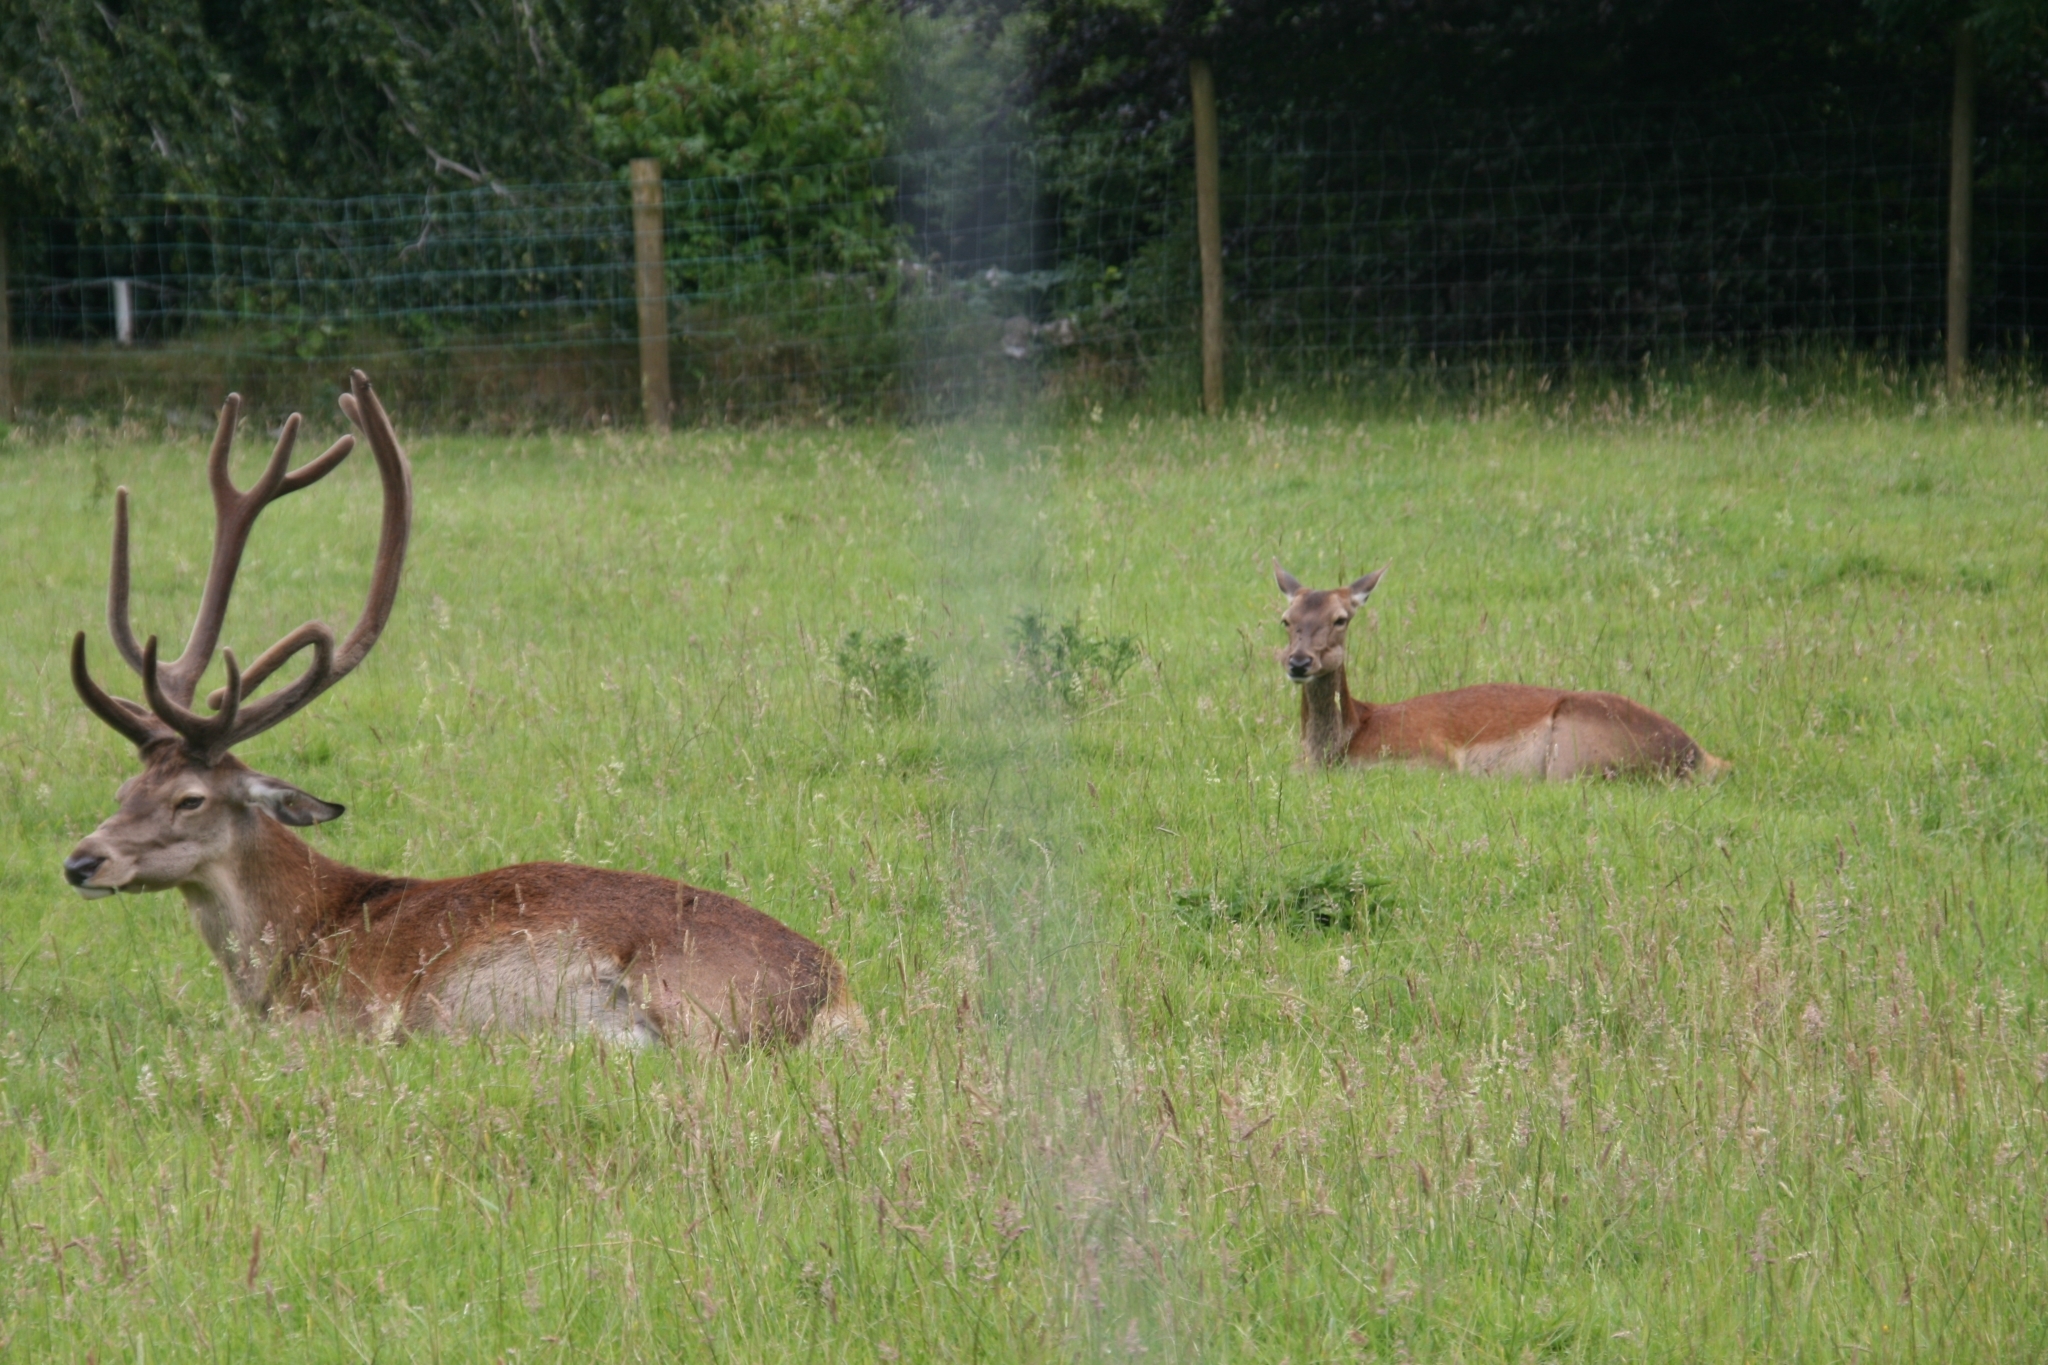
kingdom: Animalia
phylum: Chordata
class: Mammalia
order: Artiodactyla
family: Cervidae
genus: Cervus
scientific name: Cervus elaphus
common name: Red deer
